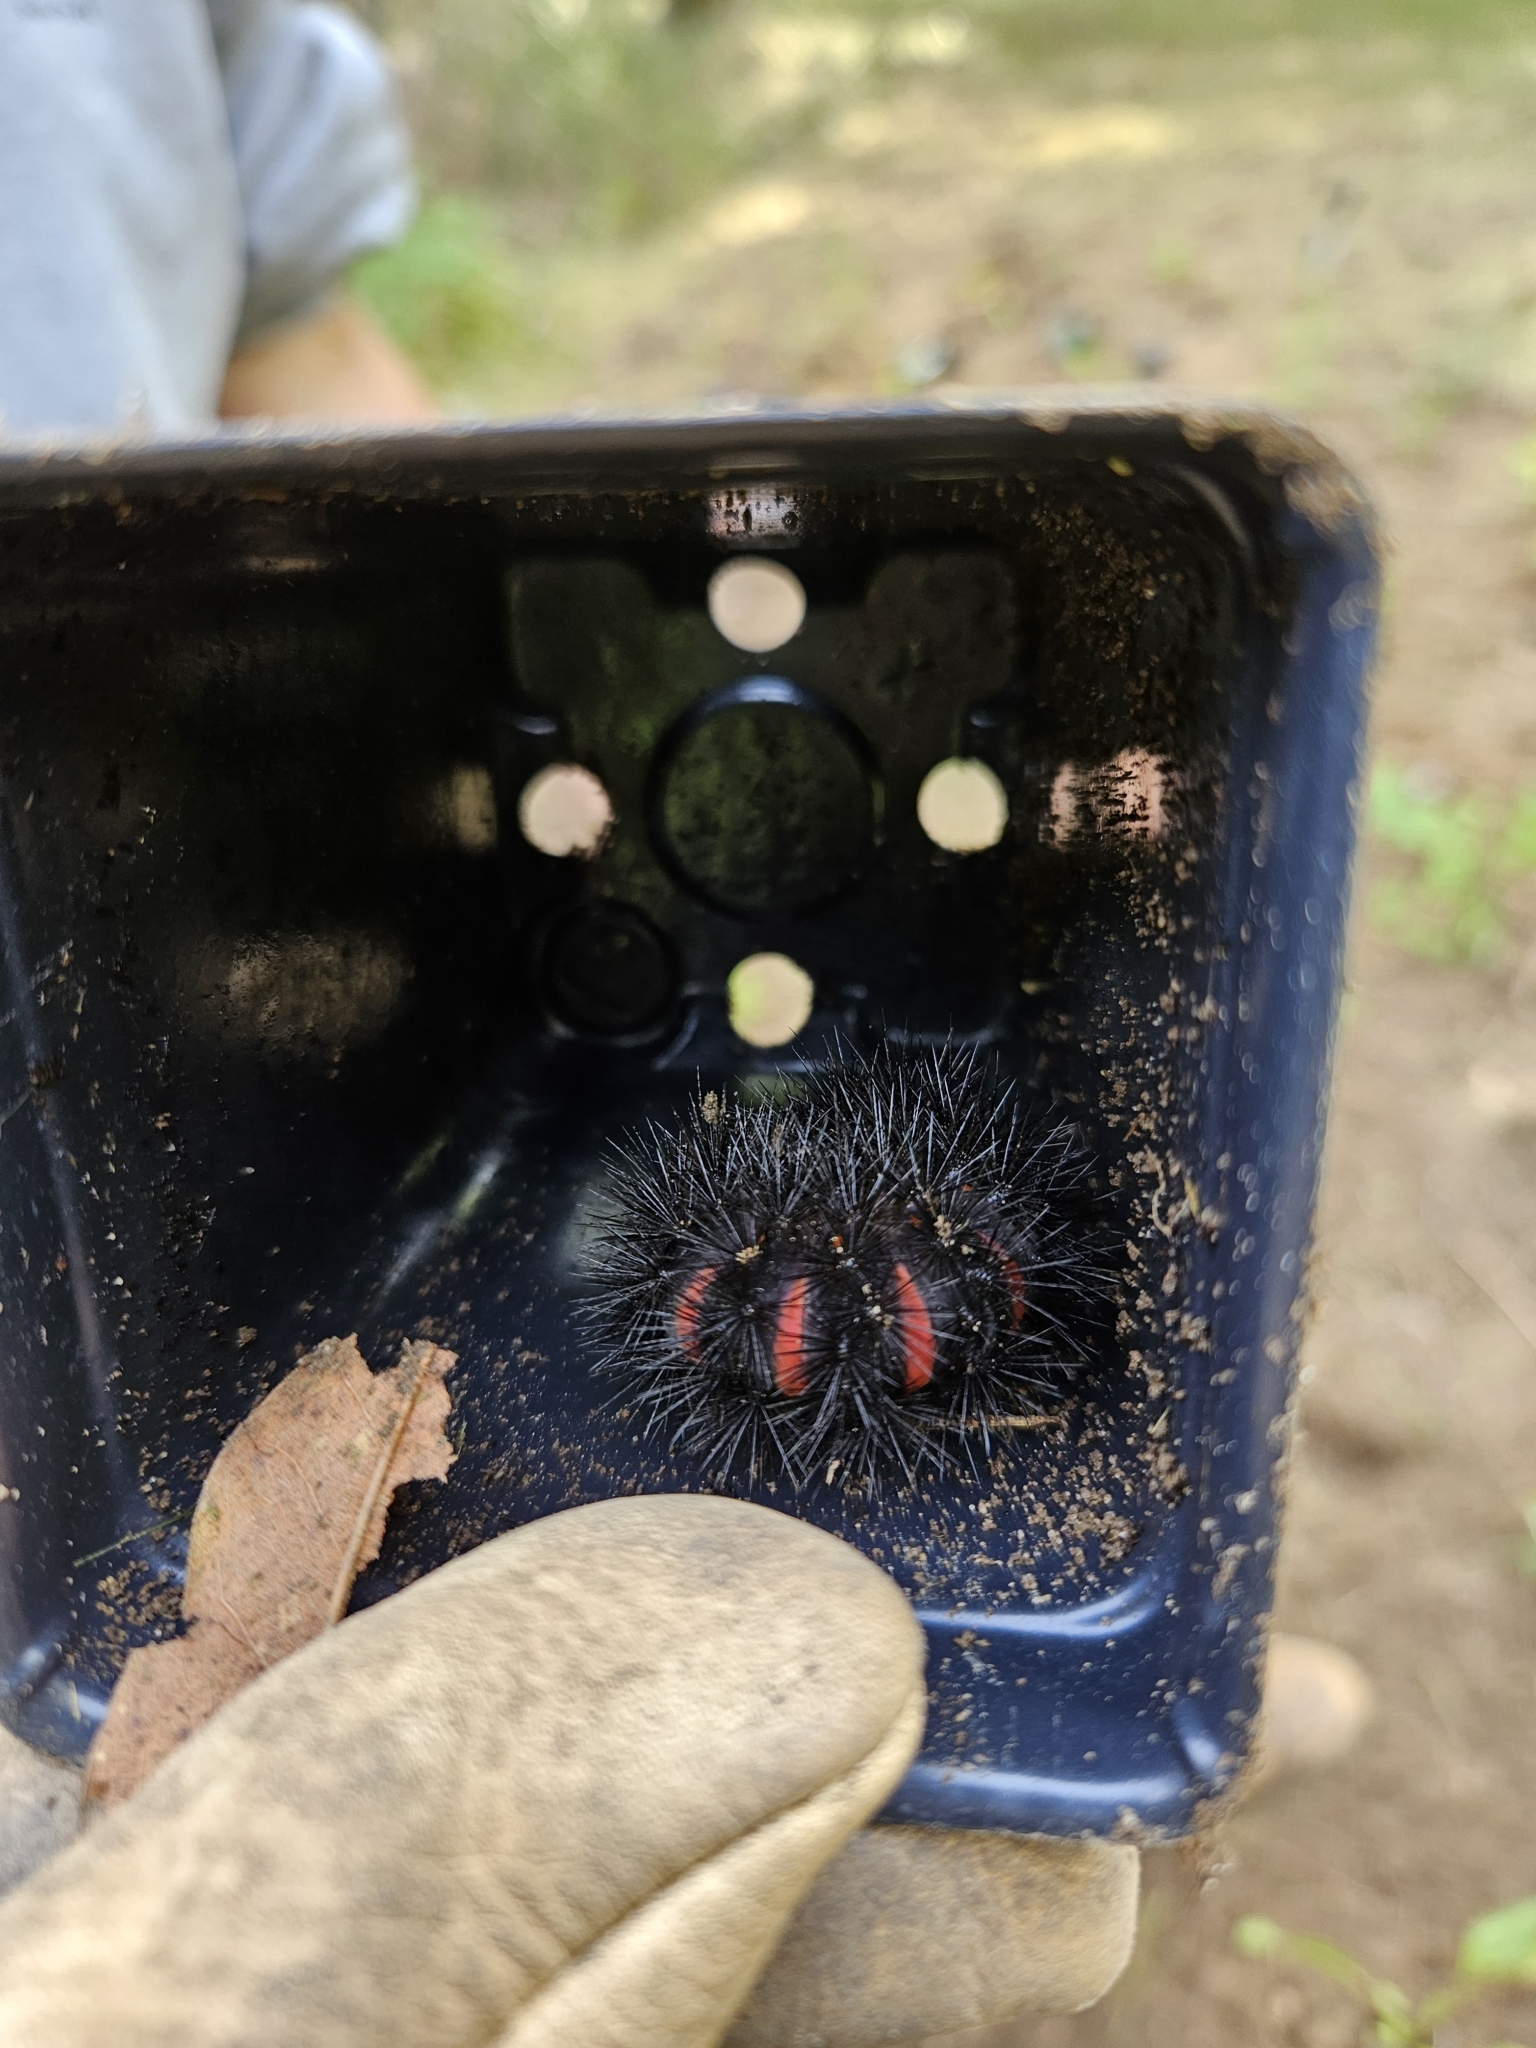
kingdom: Animalia
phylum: Arthropoda
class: Insecta
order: Lepidoptera
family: Erebidae
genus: Hypercompe
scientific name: Hypercompe scribonia
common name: Giant leopard moth
